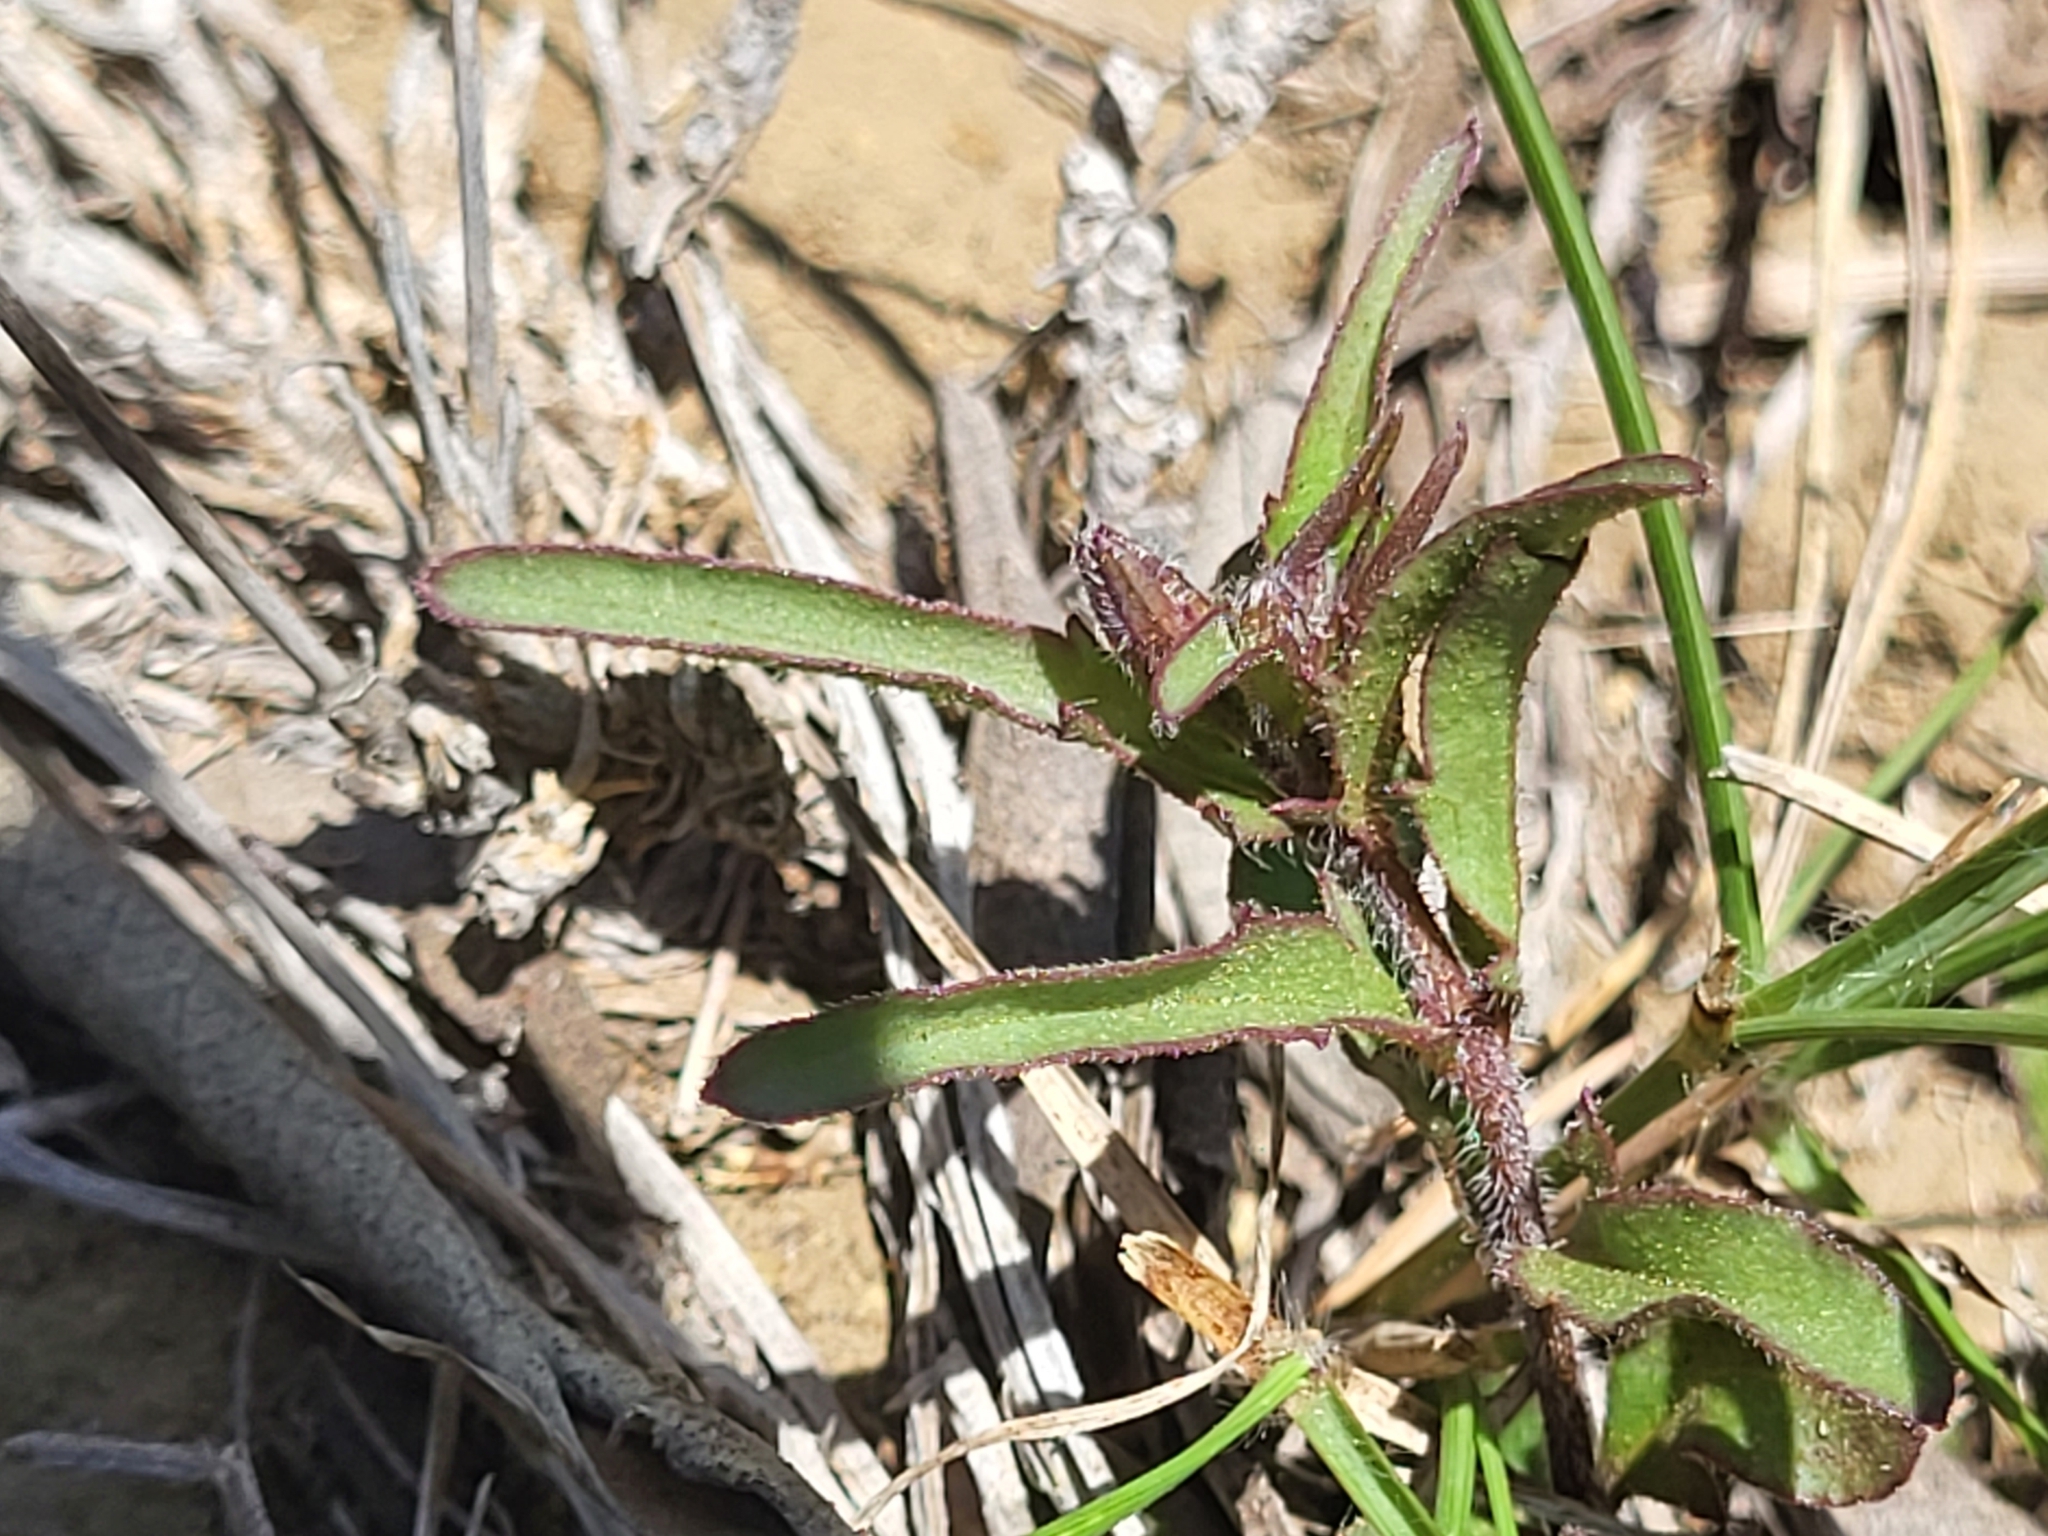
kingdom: Plantae
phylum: Tracheophyta
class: Magnoliopsida
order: Lamiales
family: Orobanchaceae
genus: Cycnium
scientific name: Cycnium tubulosum
